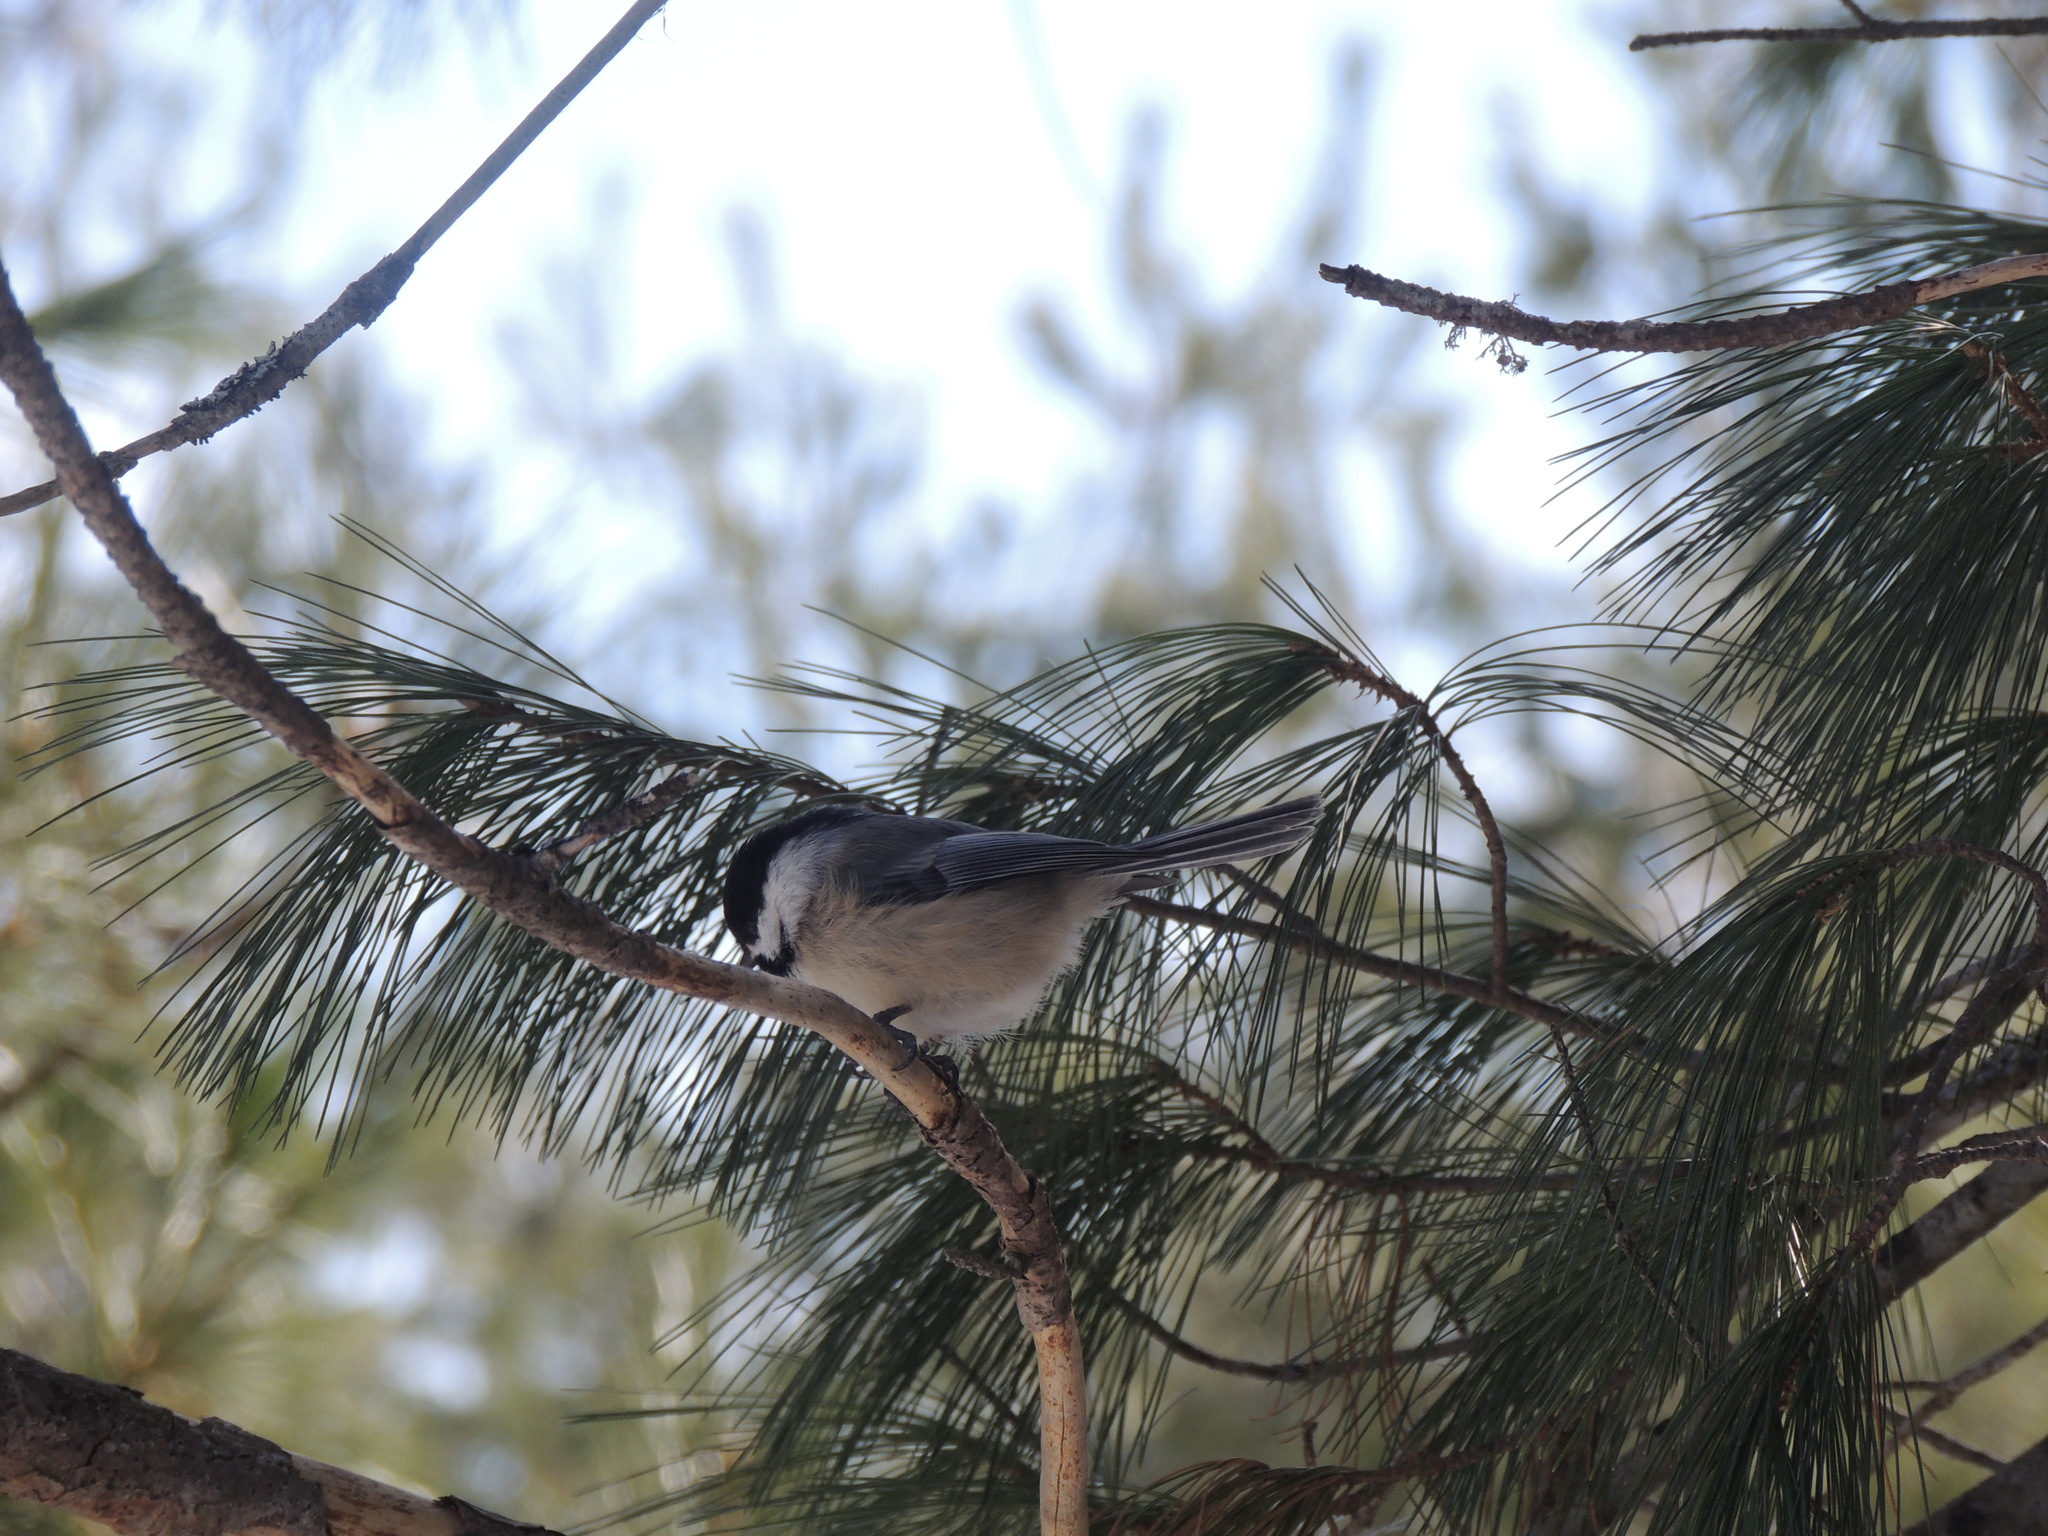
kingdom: Animalia
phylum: Chordata
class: Aves
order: Passeriformes
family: Paridae
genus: Poecile
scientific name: Poecile atricapillus
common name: Black-capped chickadee
